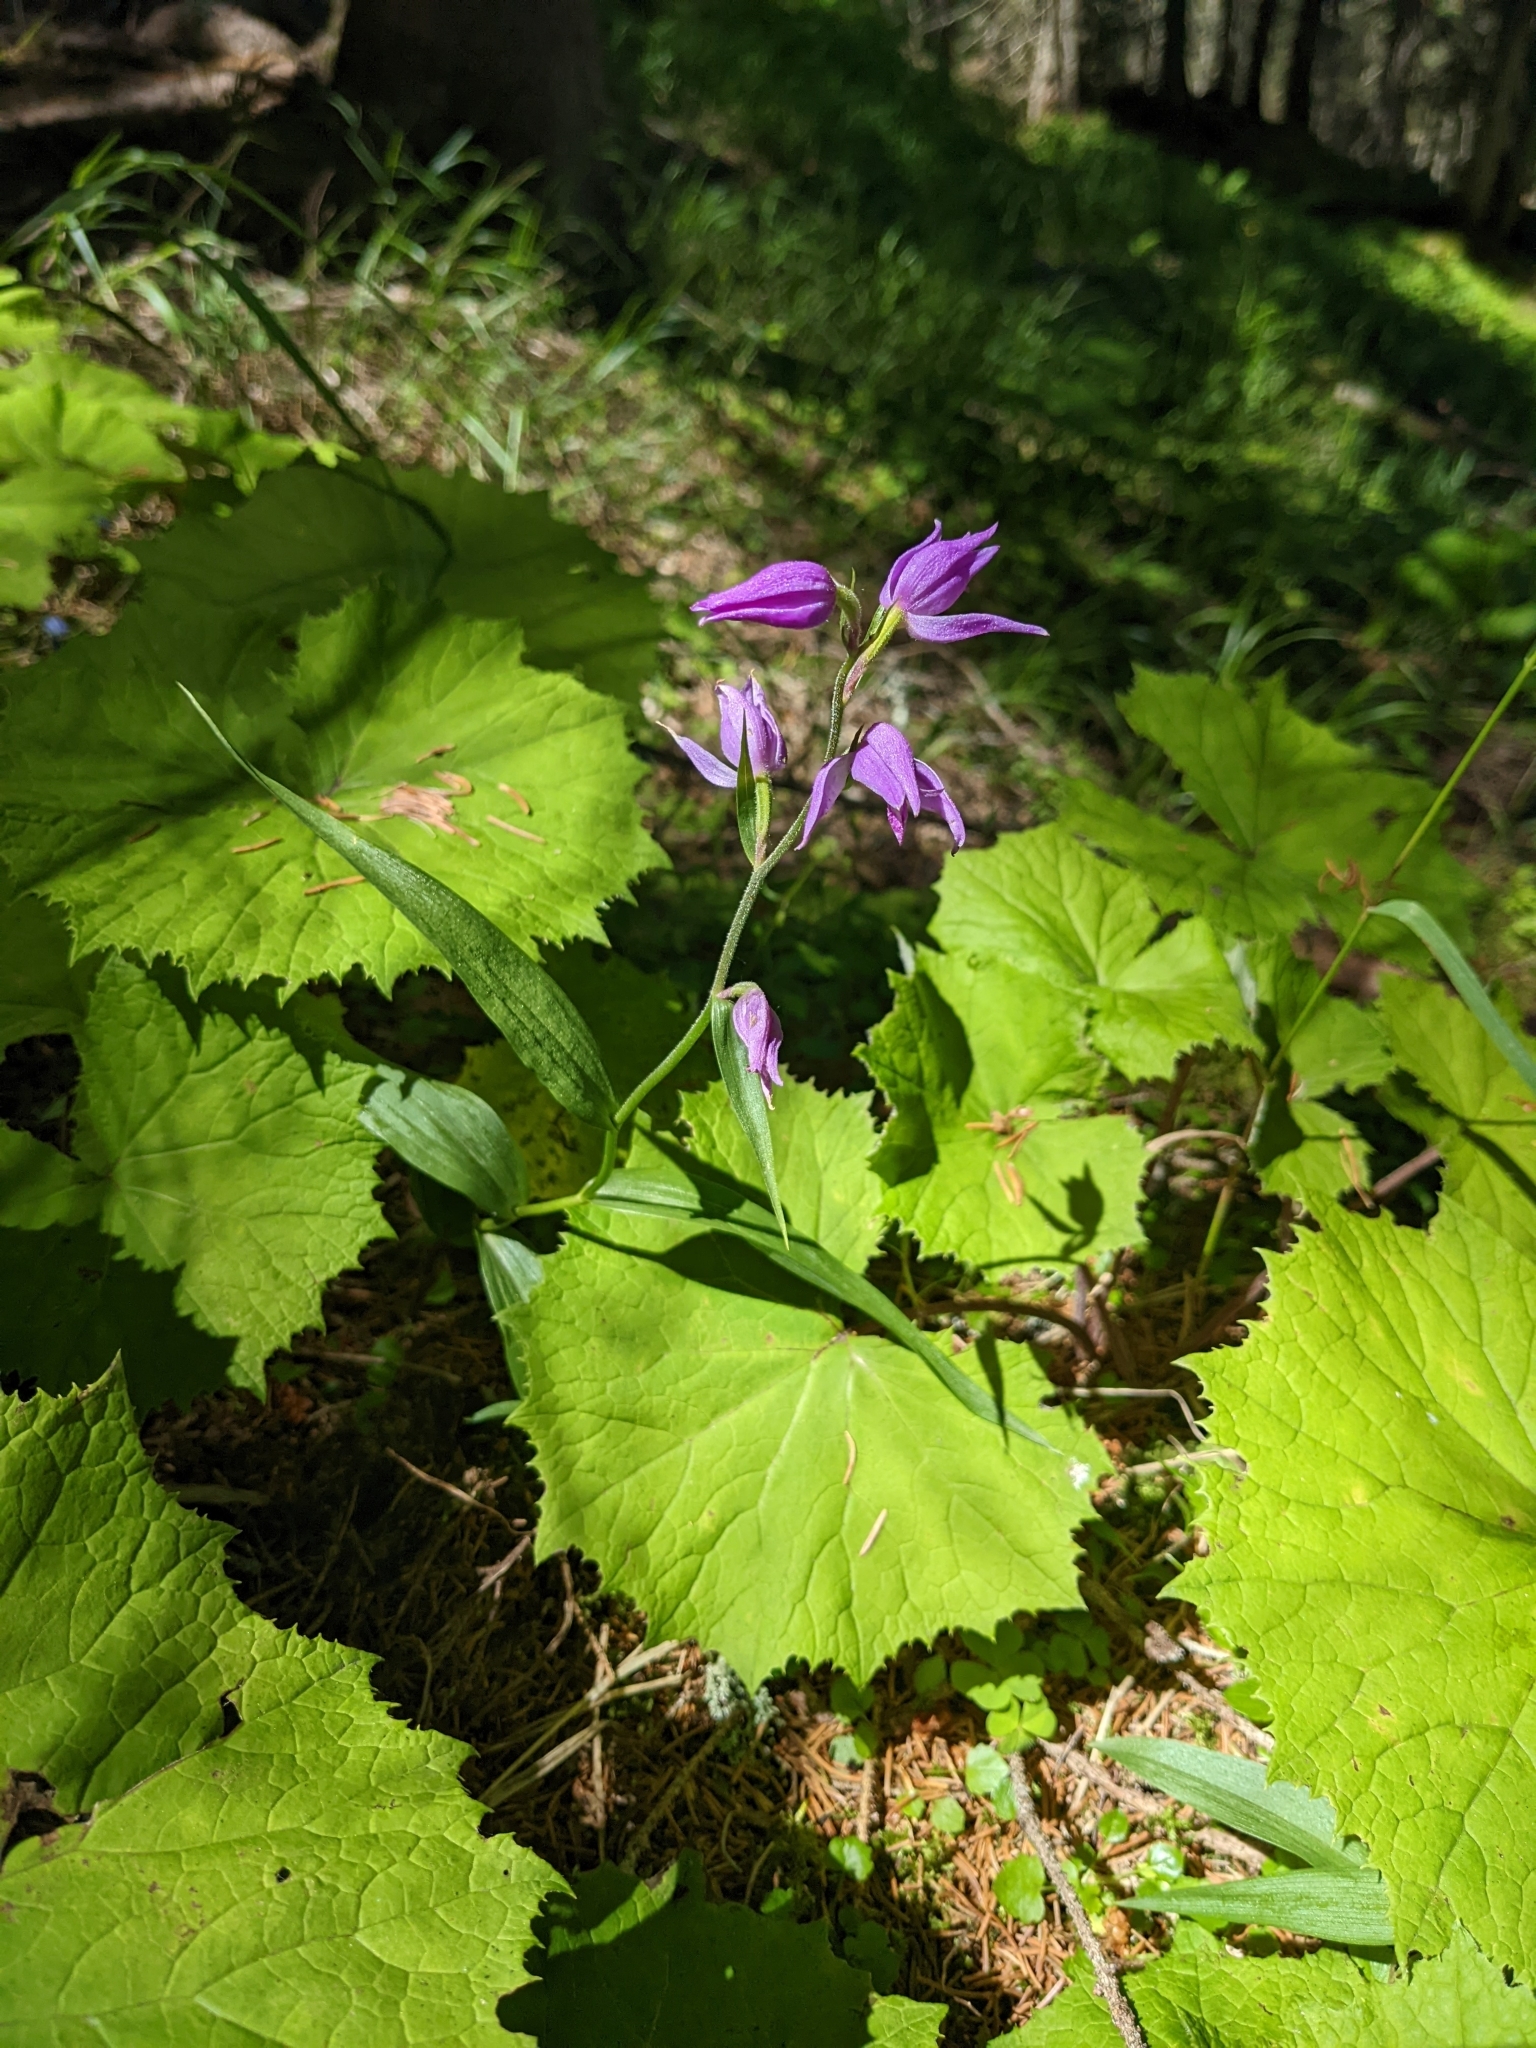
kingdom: Plantae
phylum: Tracheophyta
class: Liliopsida
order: Asparagales
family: Orchidaceae
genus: Cephalanthera
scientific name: Cephalanthera rubra
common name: Red helleborine
